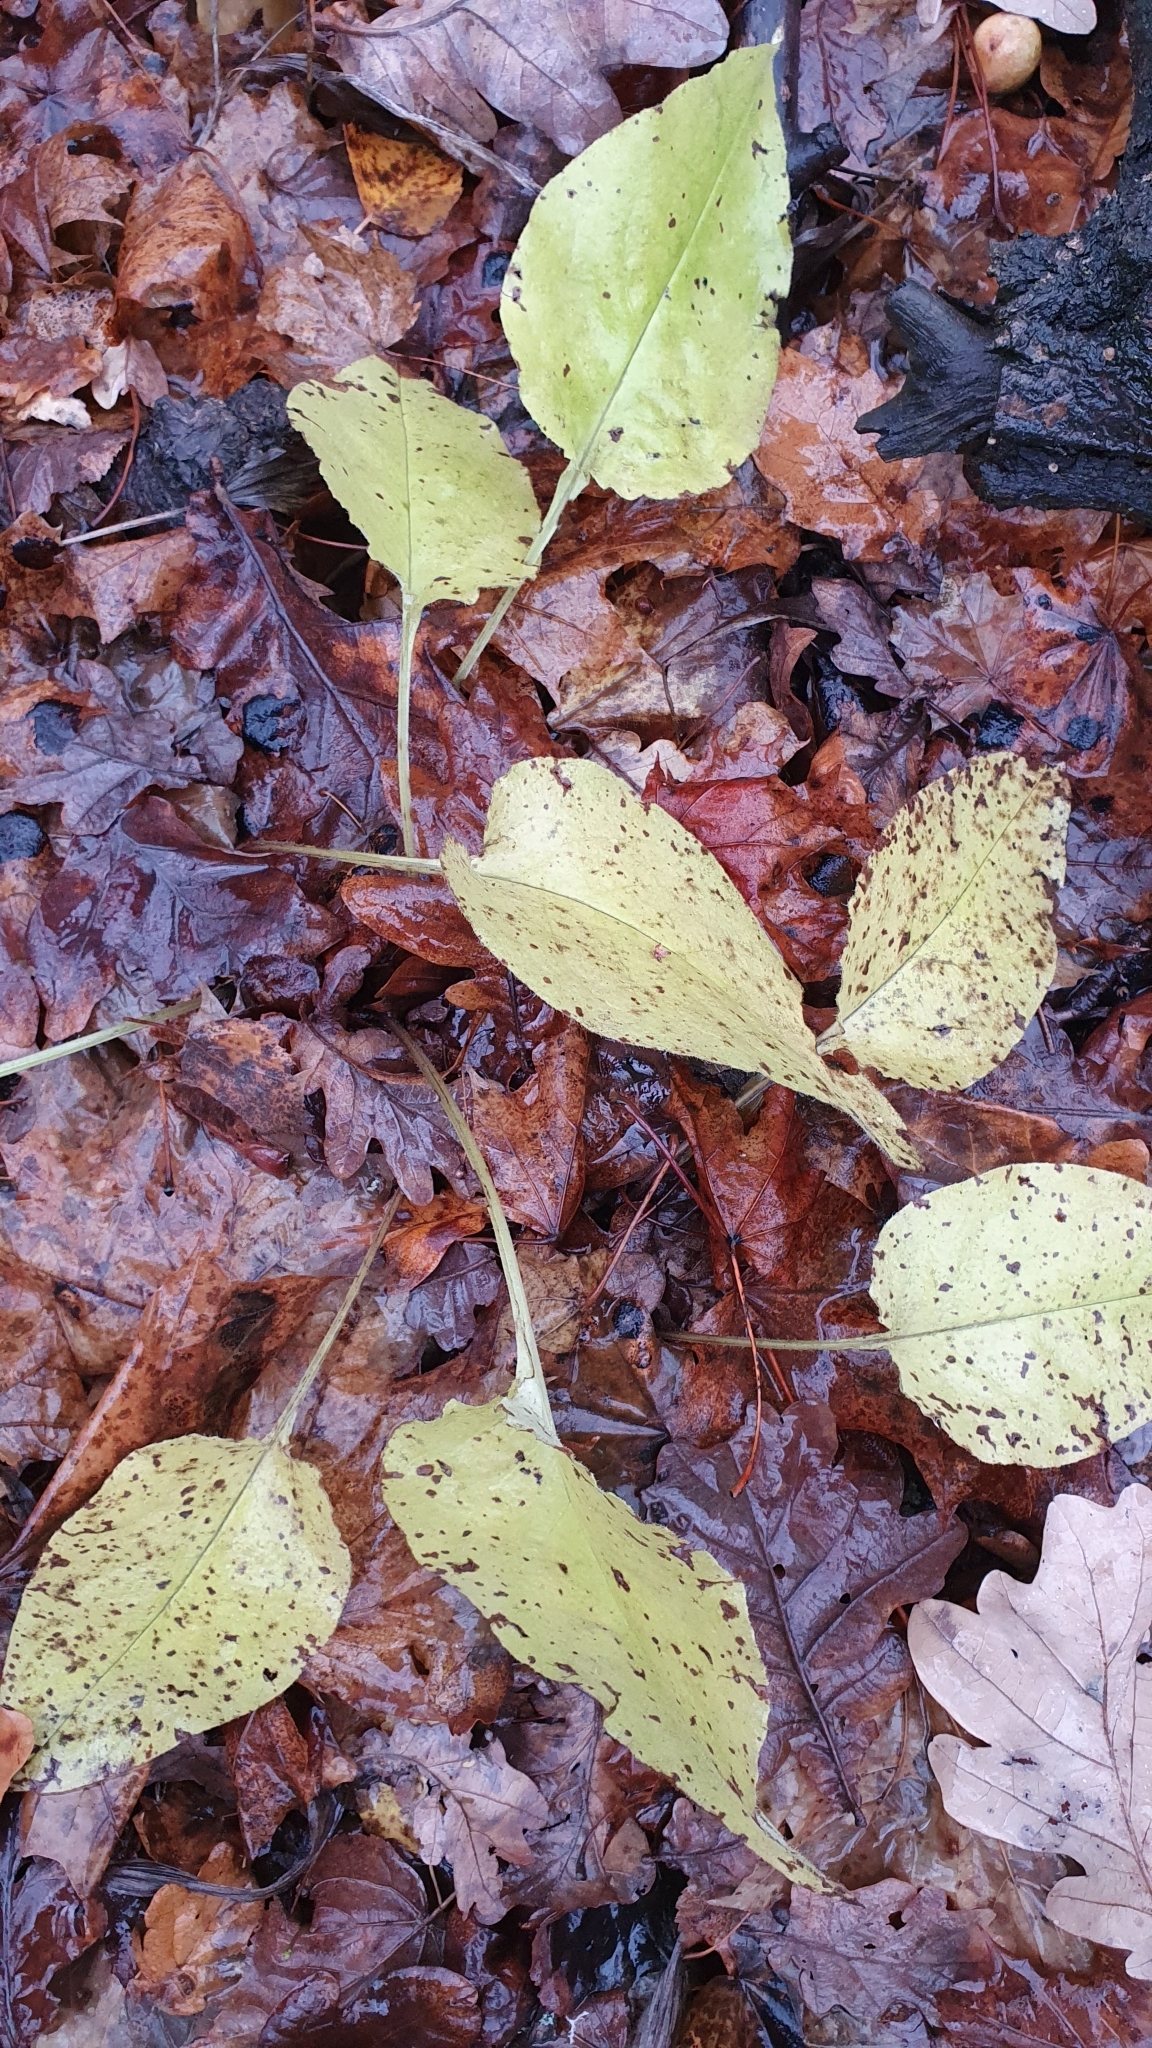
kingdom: Plantae
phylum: Tracheophyta
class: Magnoliopsida
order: Boraginales
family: Boraginaceae
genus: Pulmonaria
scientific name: Pulmonaria obscura
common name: Suffolk lungwort
